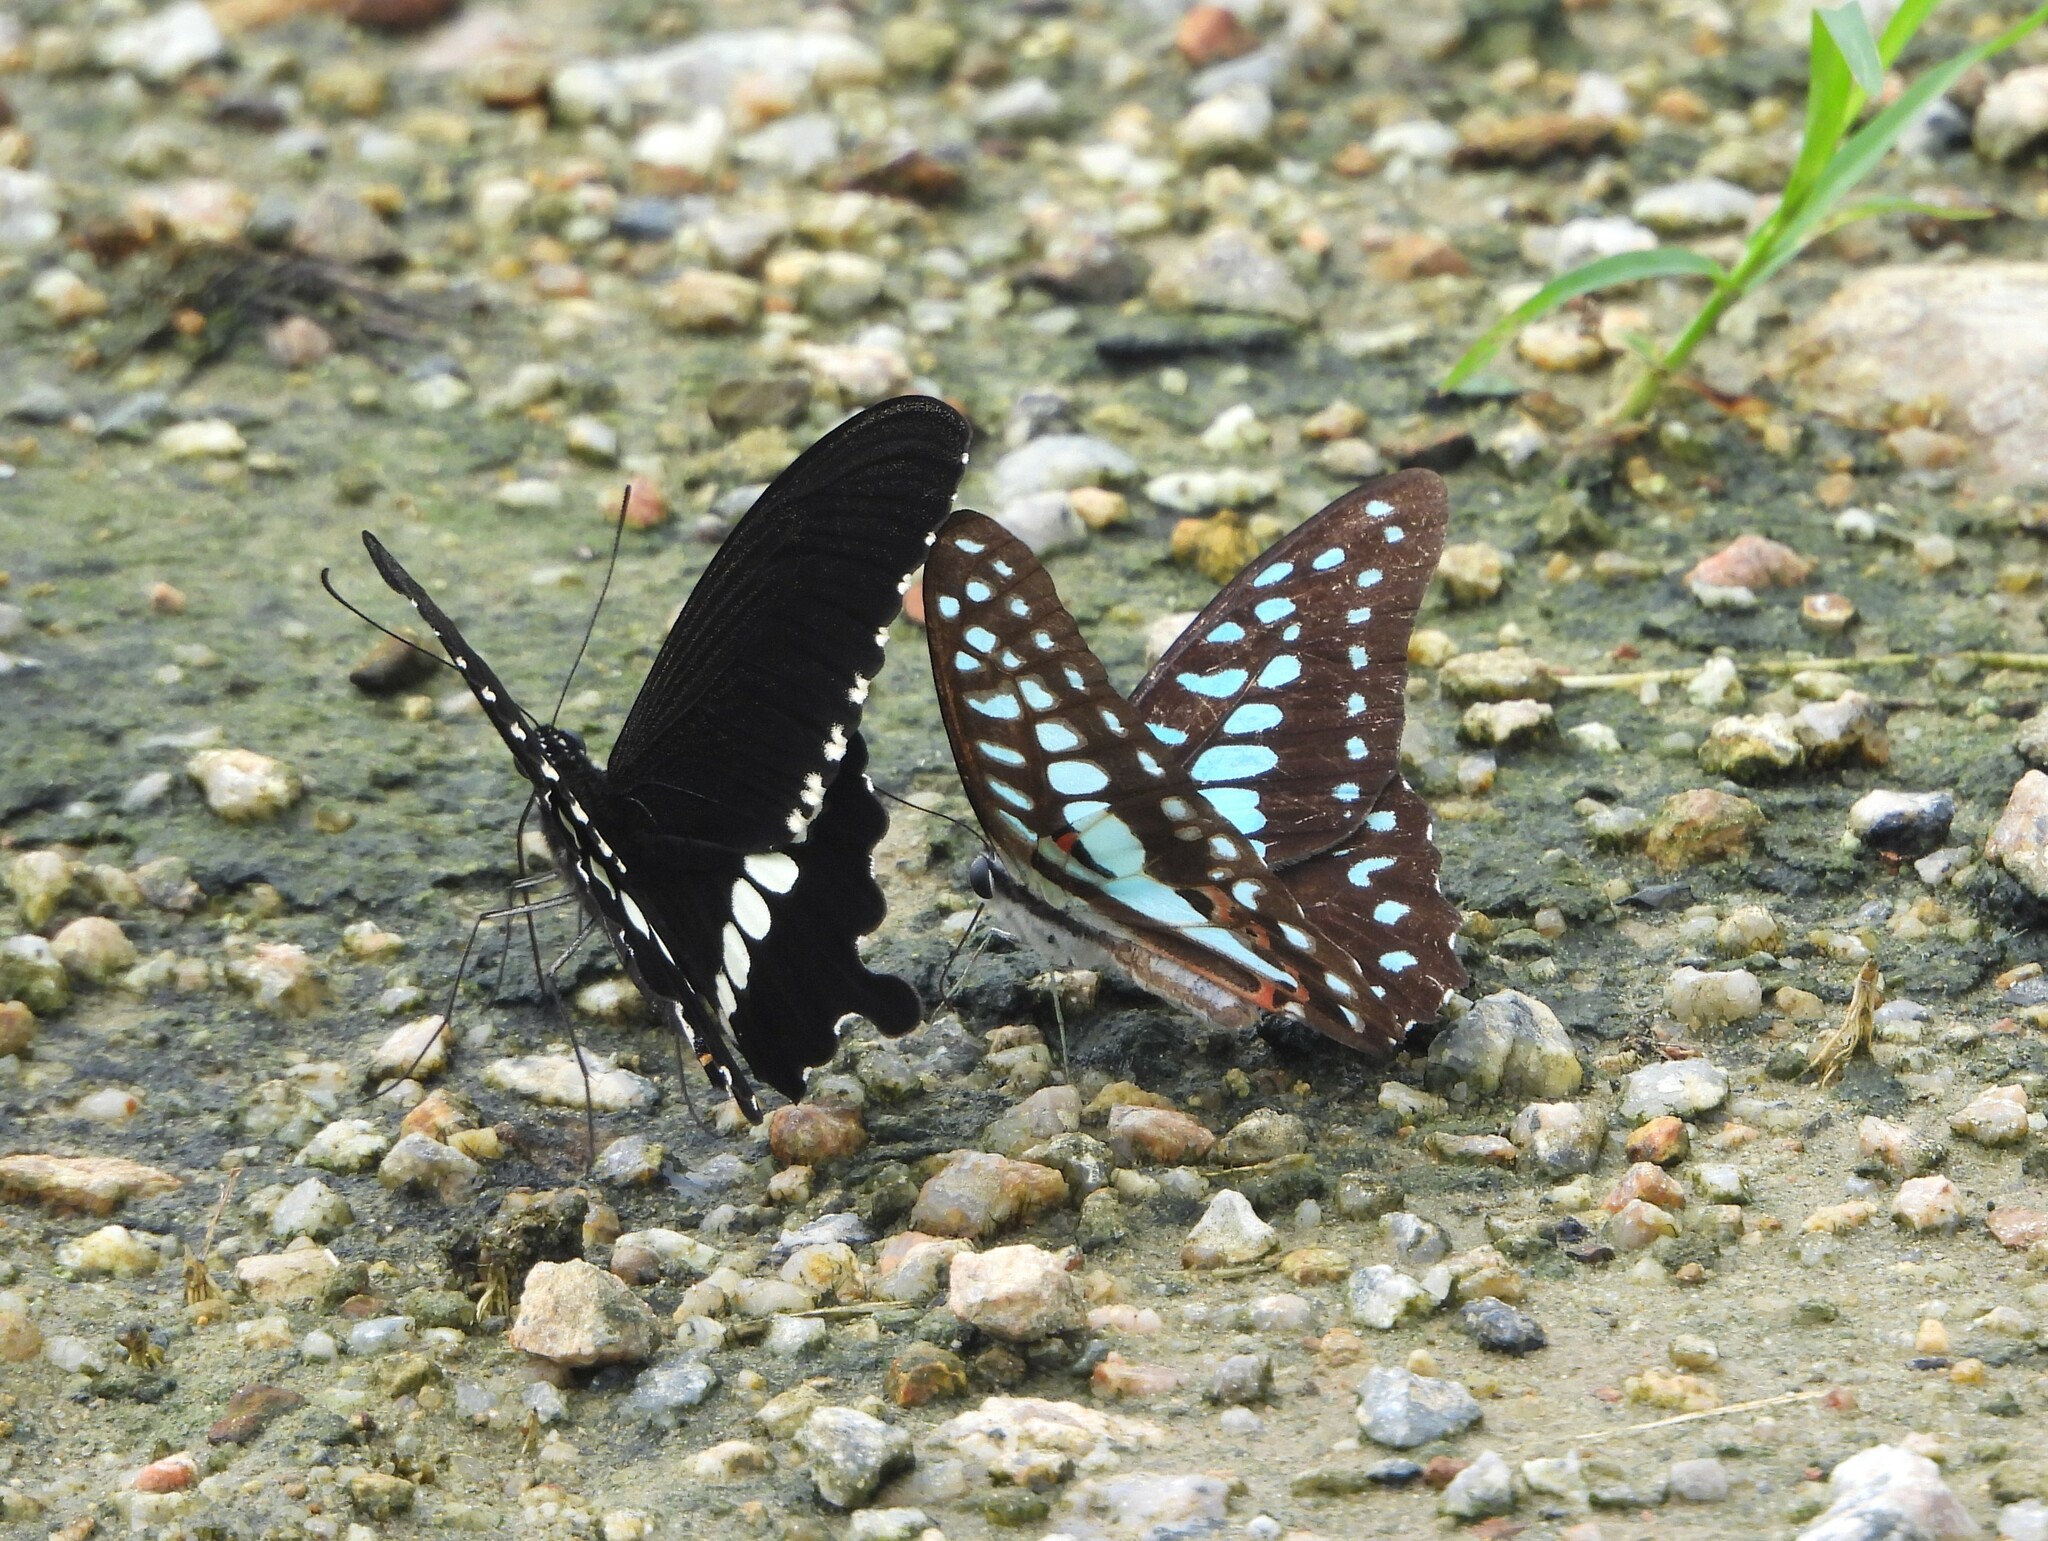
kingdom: Animalia
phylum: Arthropoda
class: Insecta
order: Lepidoptera
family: Papilionidae
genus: Graphium
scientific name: Graphium doson
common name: Common jay
